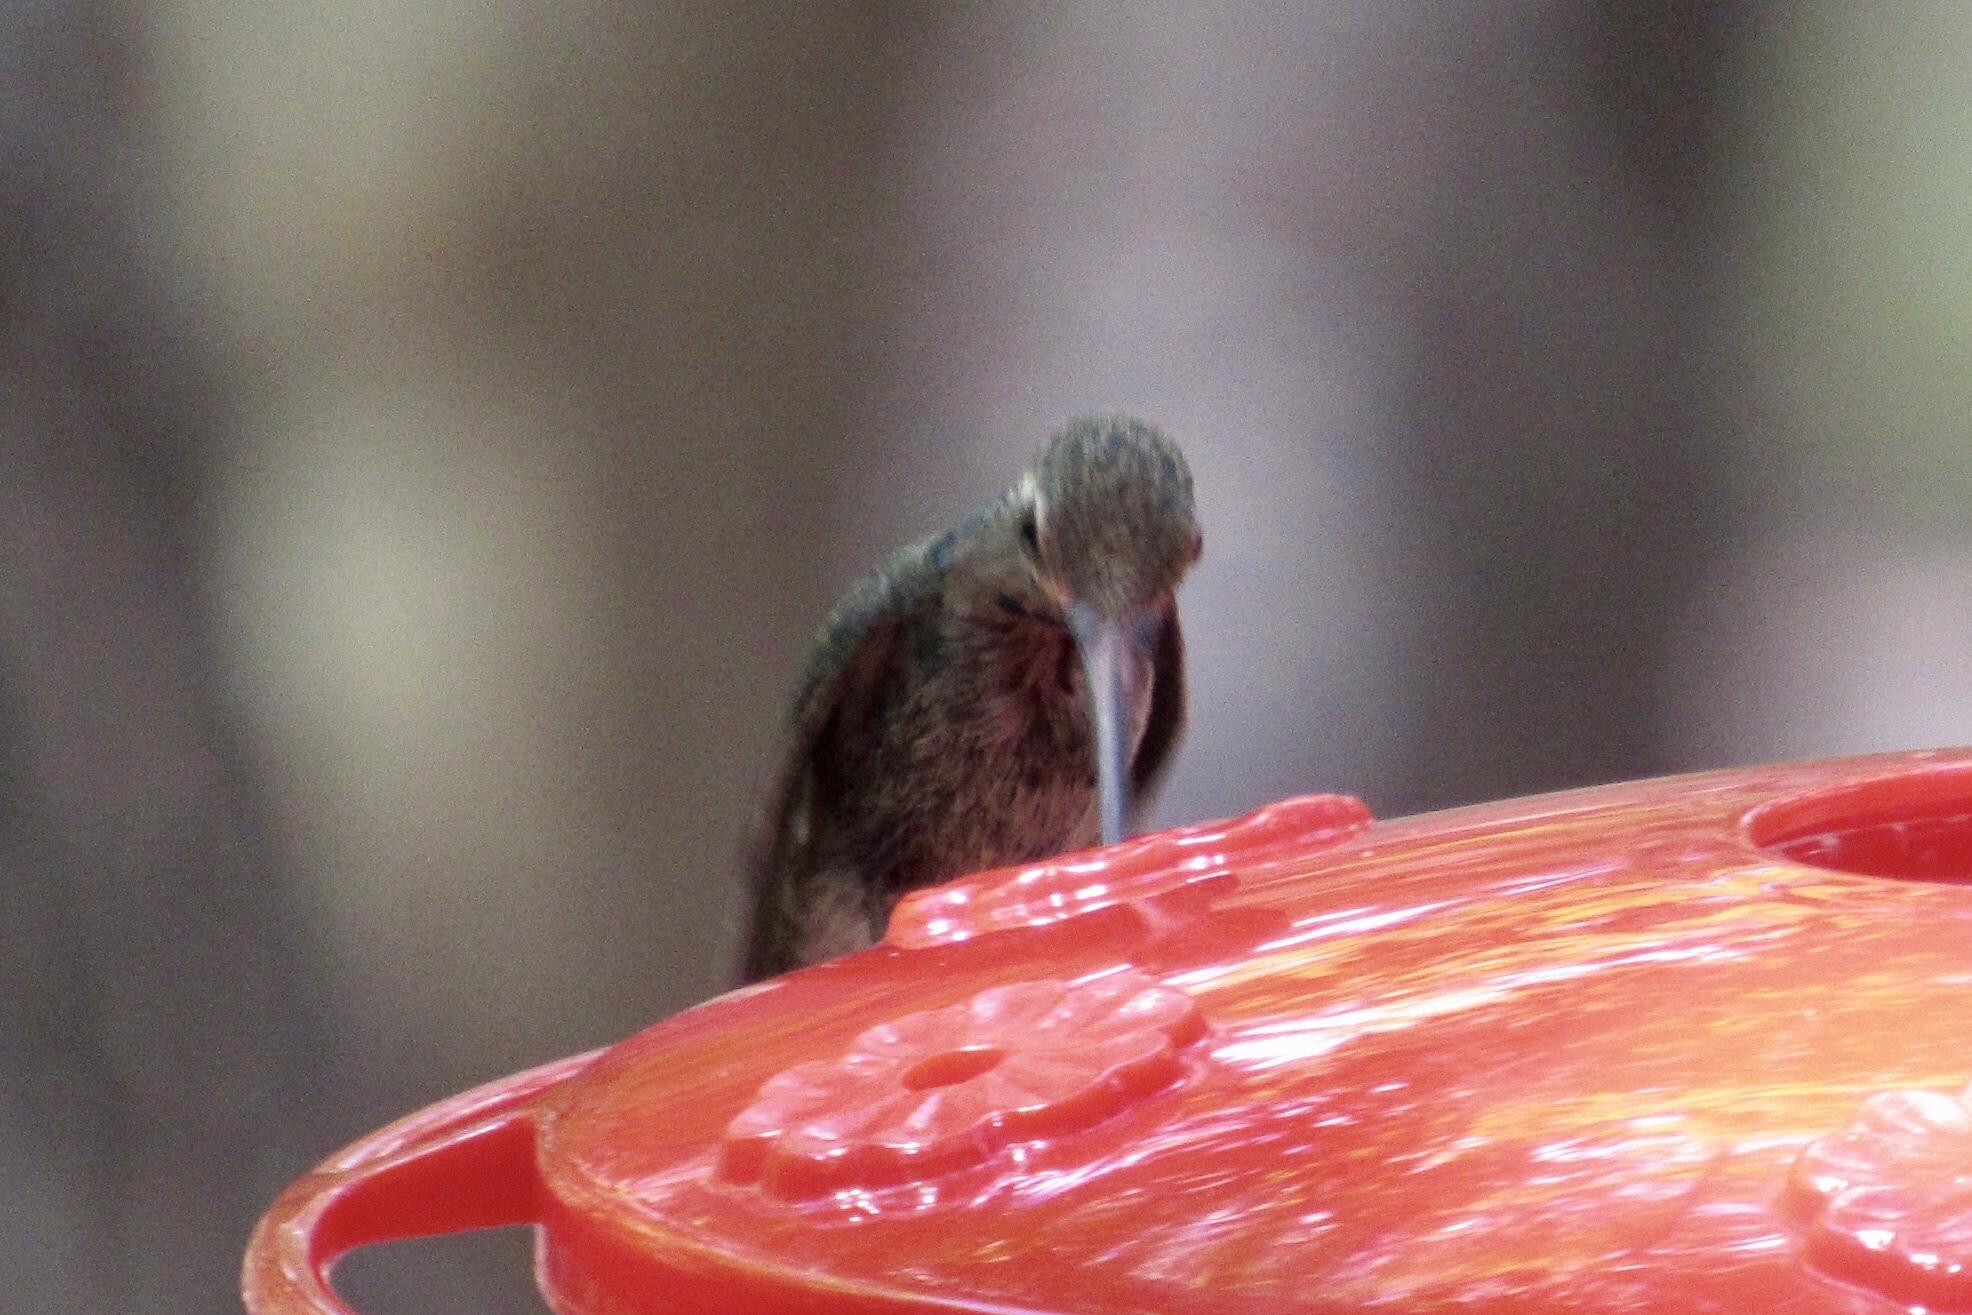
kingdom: Animalia
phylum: Chordata
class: Aves
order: Apodiformes
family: Trochilidae
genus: Cynanthus
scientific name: Cynanthus latirostris
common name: Broad-billed hummingbird
